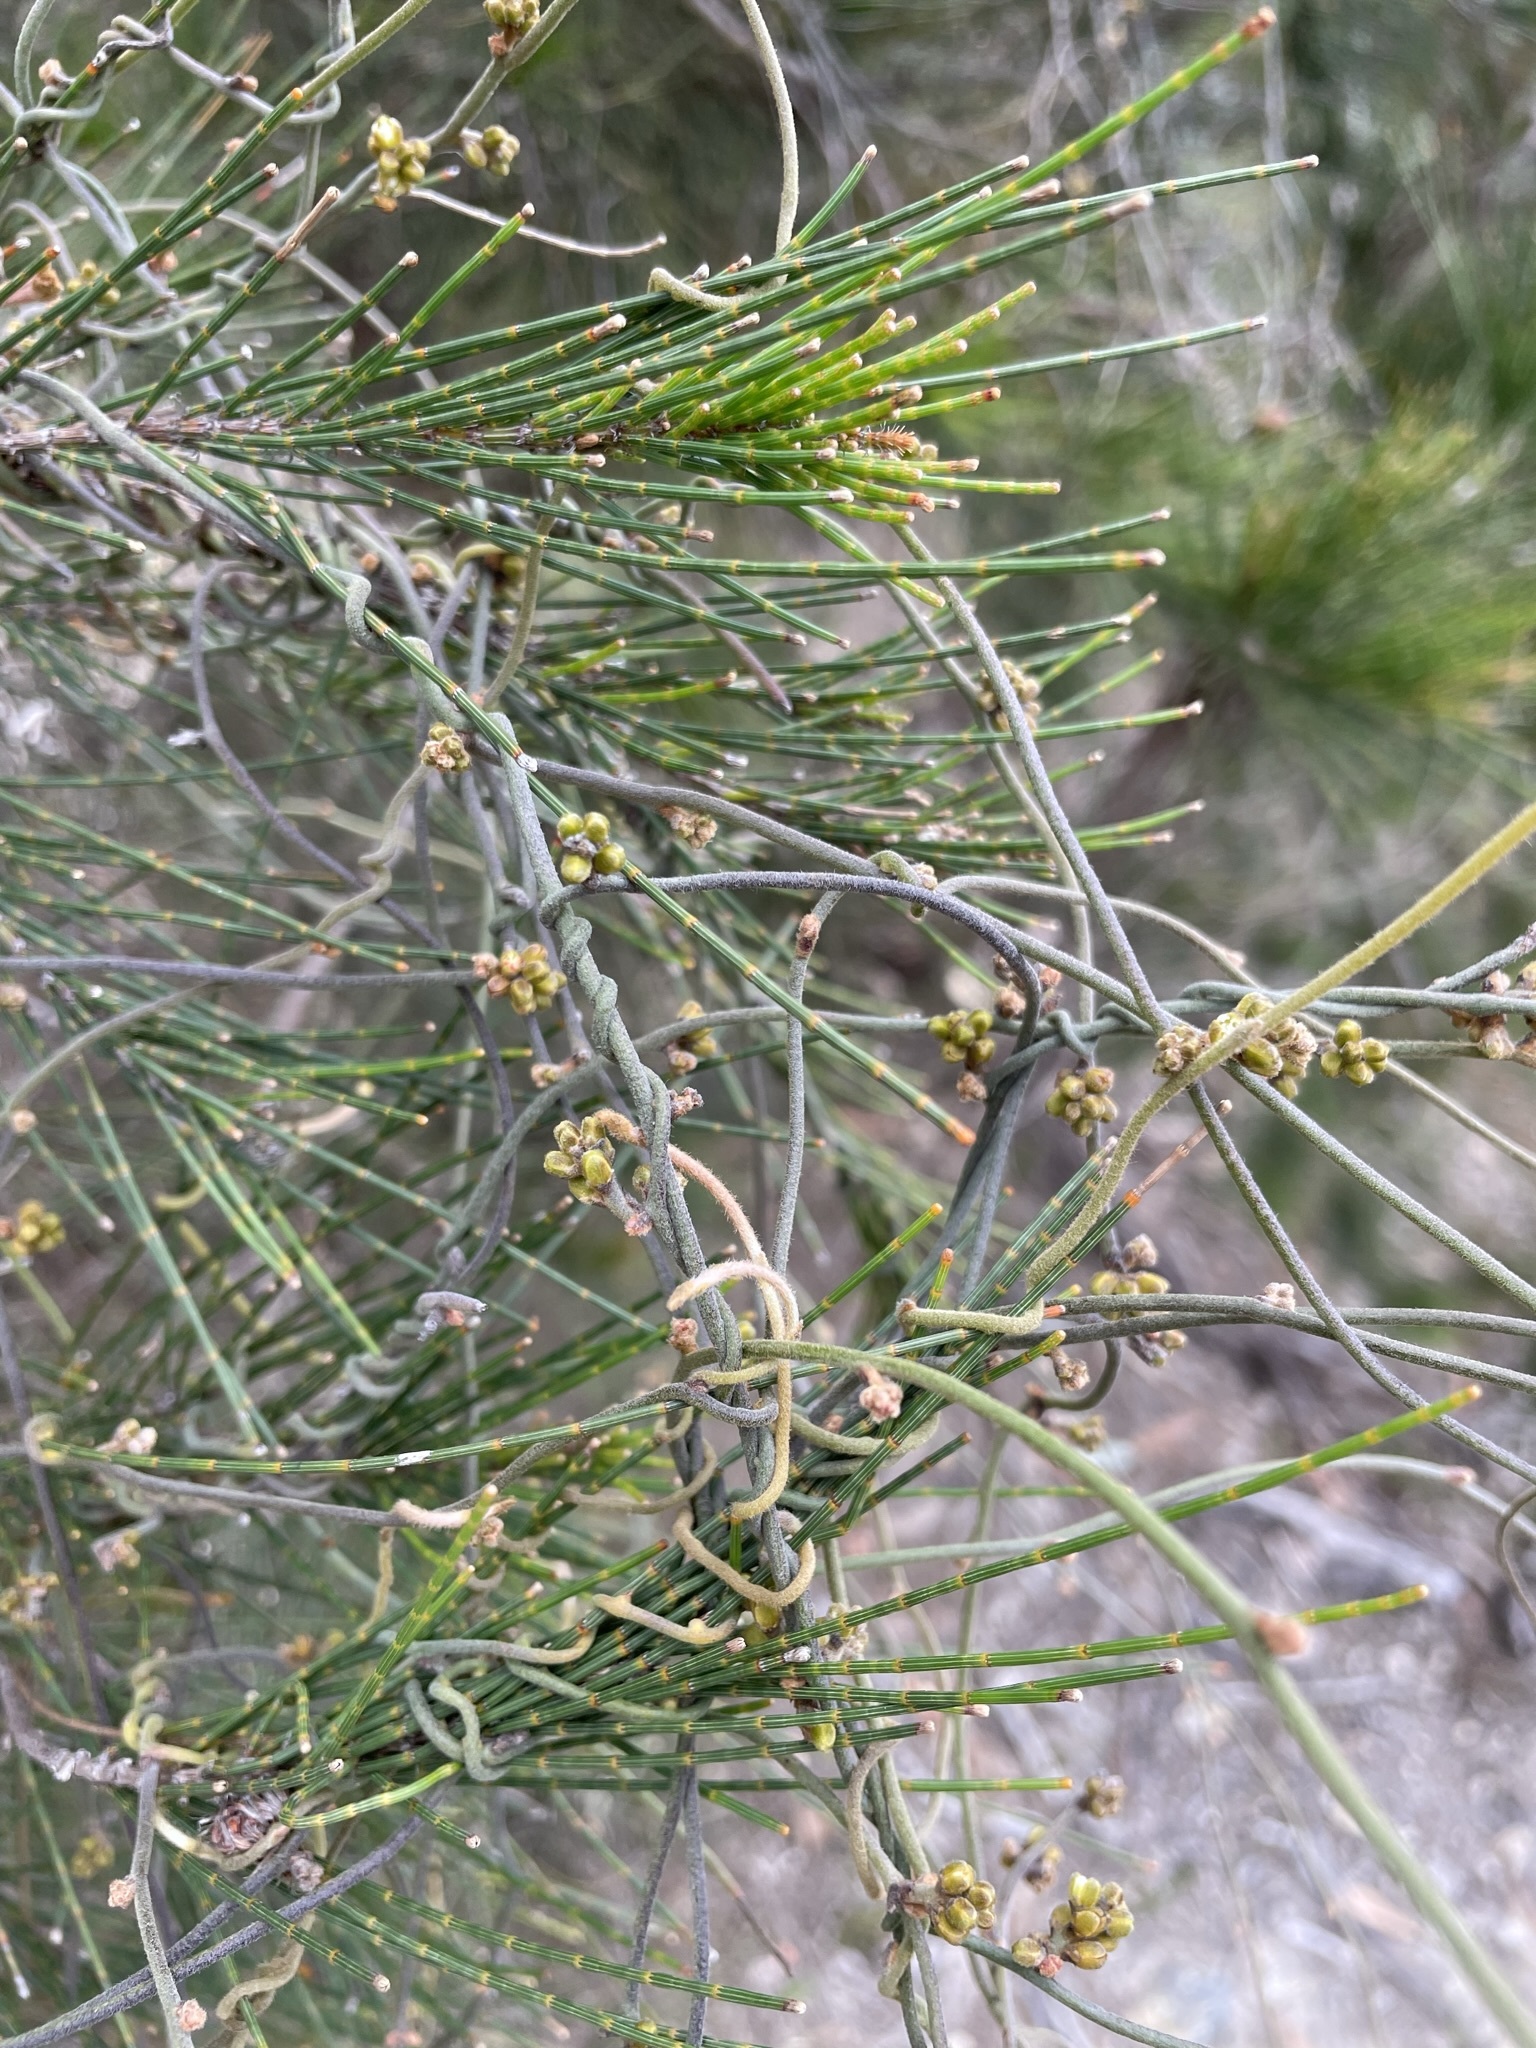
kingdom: Plantae
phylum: Tracheophyta
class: Magnoliopsida
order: Laurales
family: Lauraceae
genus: Cassytha
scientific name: Cassytha pubescens
